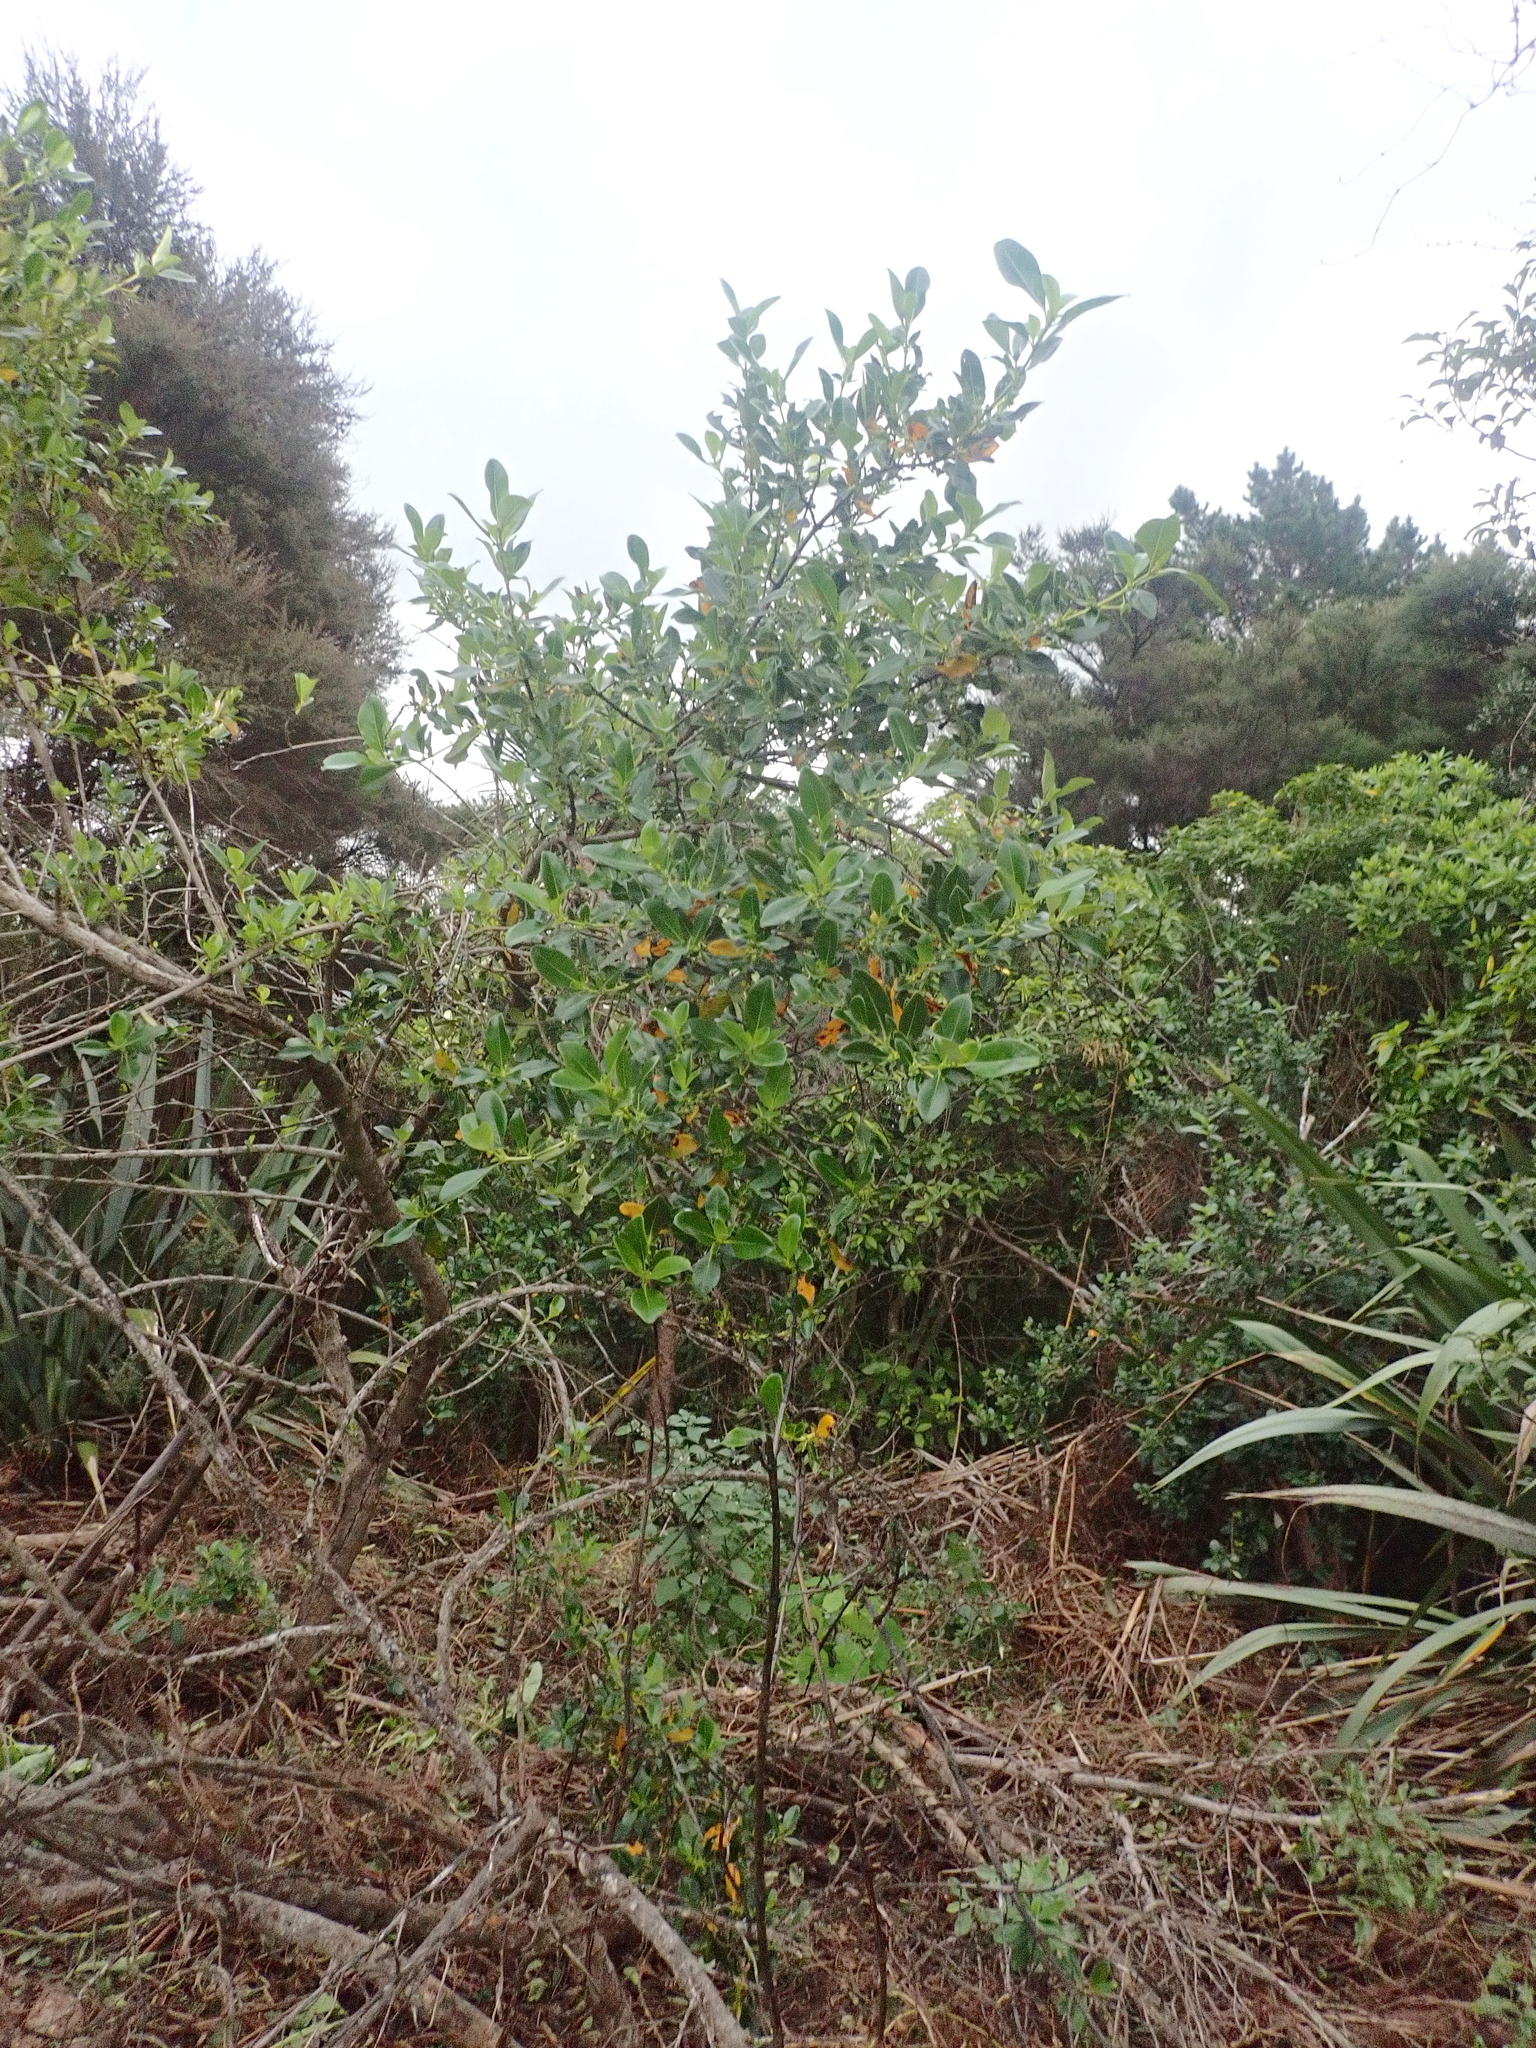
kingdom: Plantae
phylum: Tracheophyta
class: Magnoliopsida
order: Gentianales
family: Rubiaceae
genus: Coprosma
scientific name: Coprosma robusta
